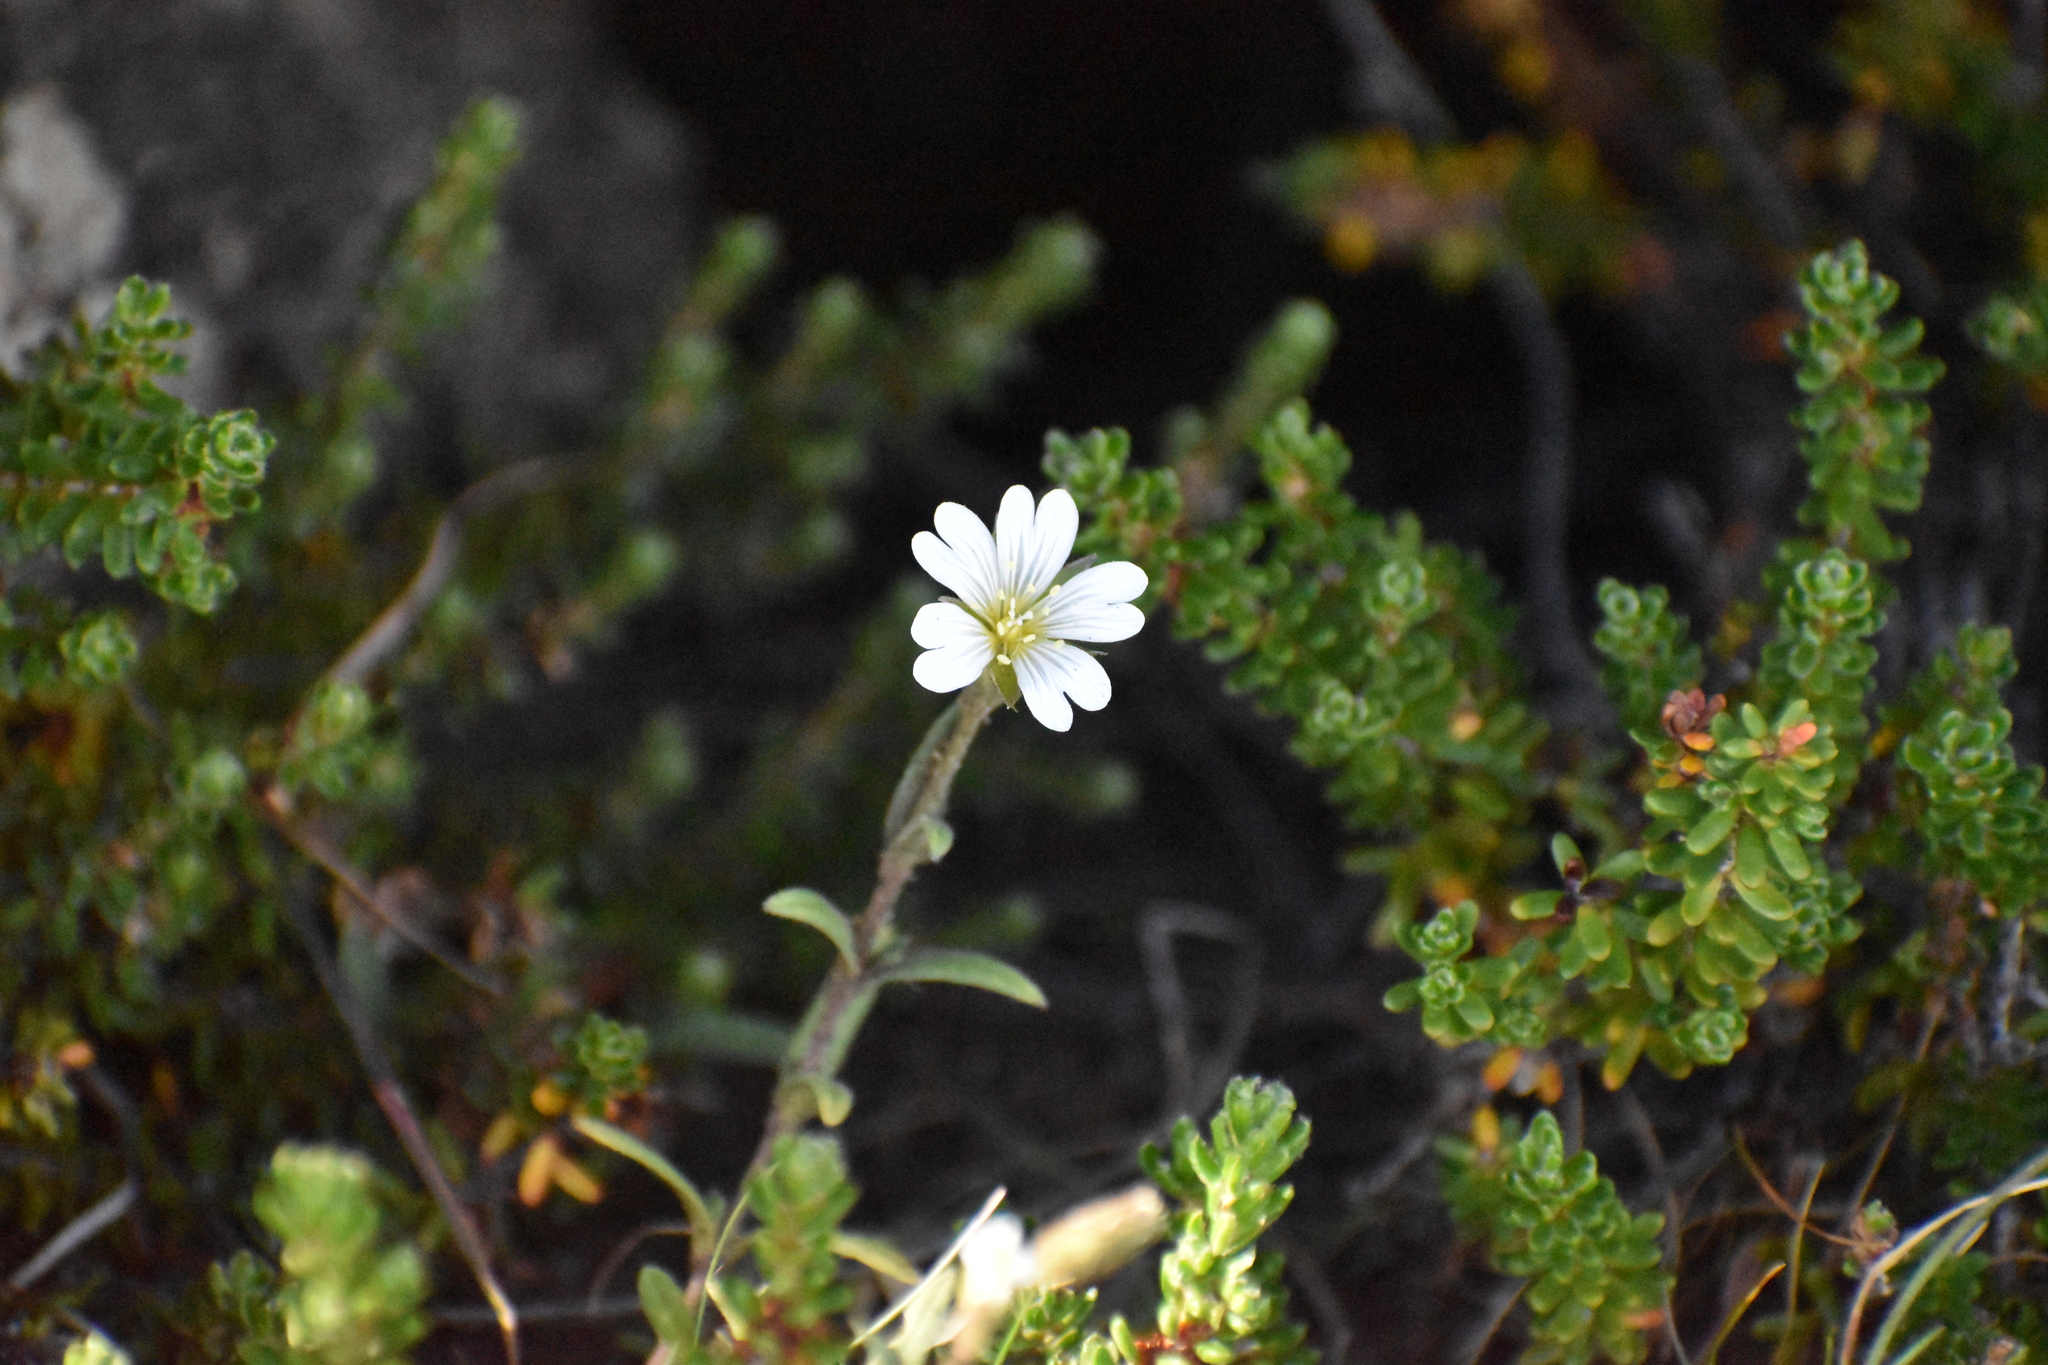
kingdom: Plantae
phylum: Tracheophyta
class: Magnoliopsida
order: Caryophyllales
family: Caryophyllaceae
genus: Cerastium
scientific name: Cerastium arvense
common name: Field mouse-ear
